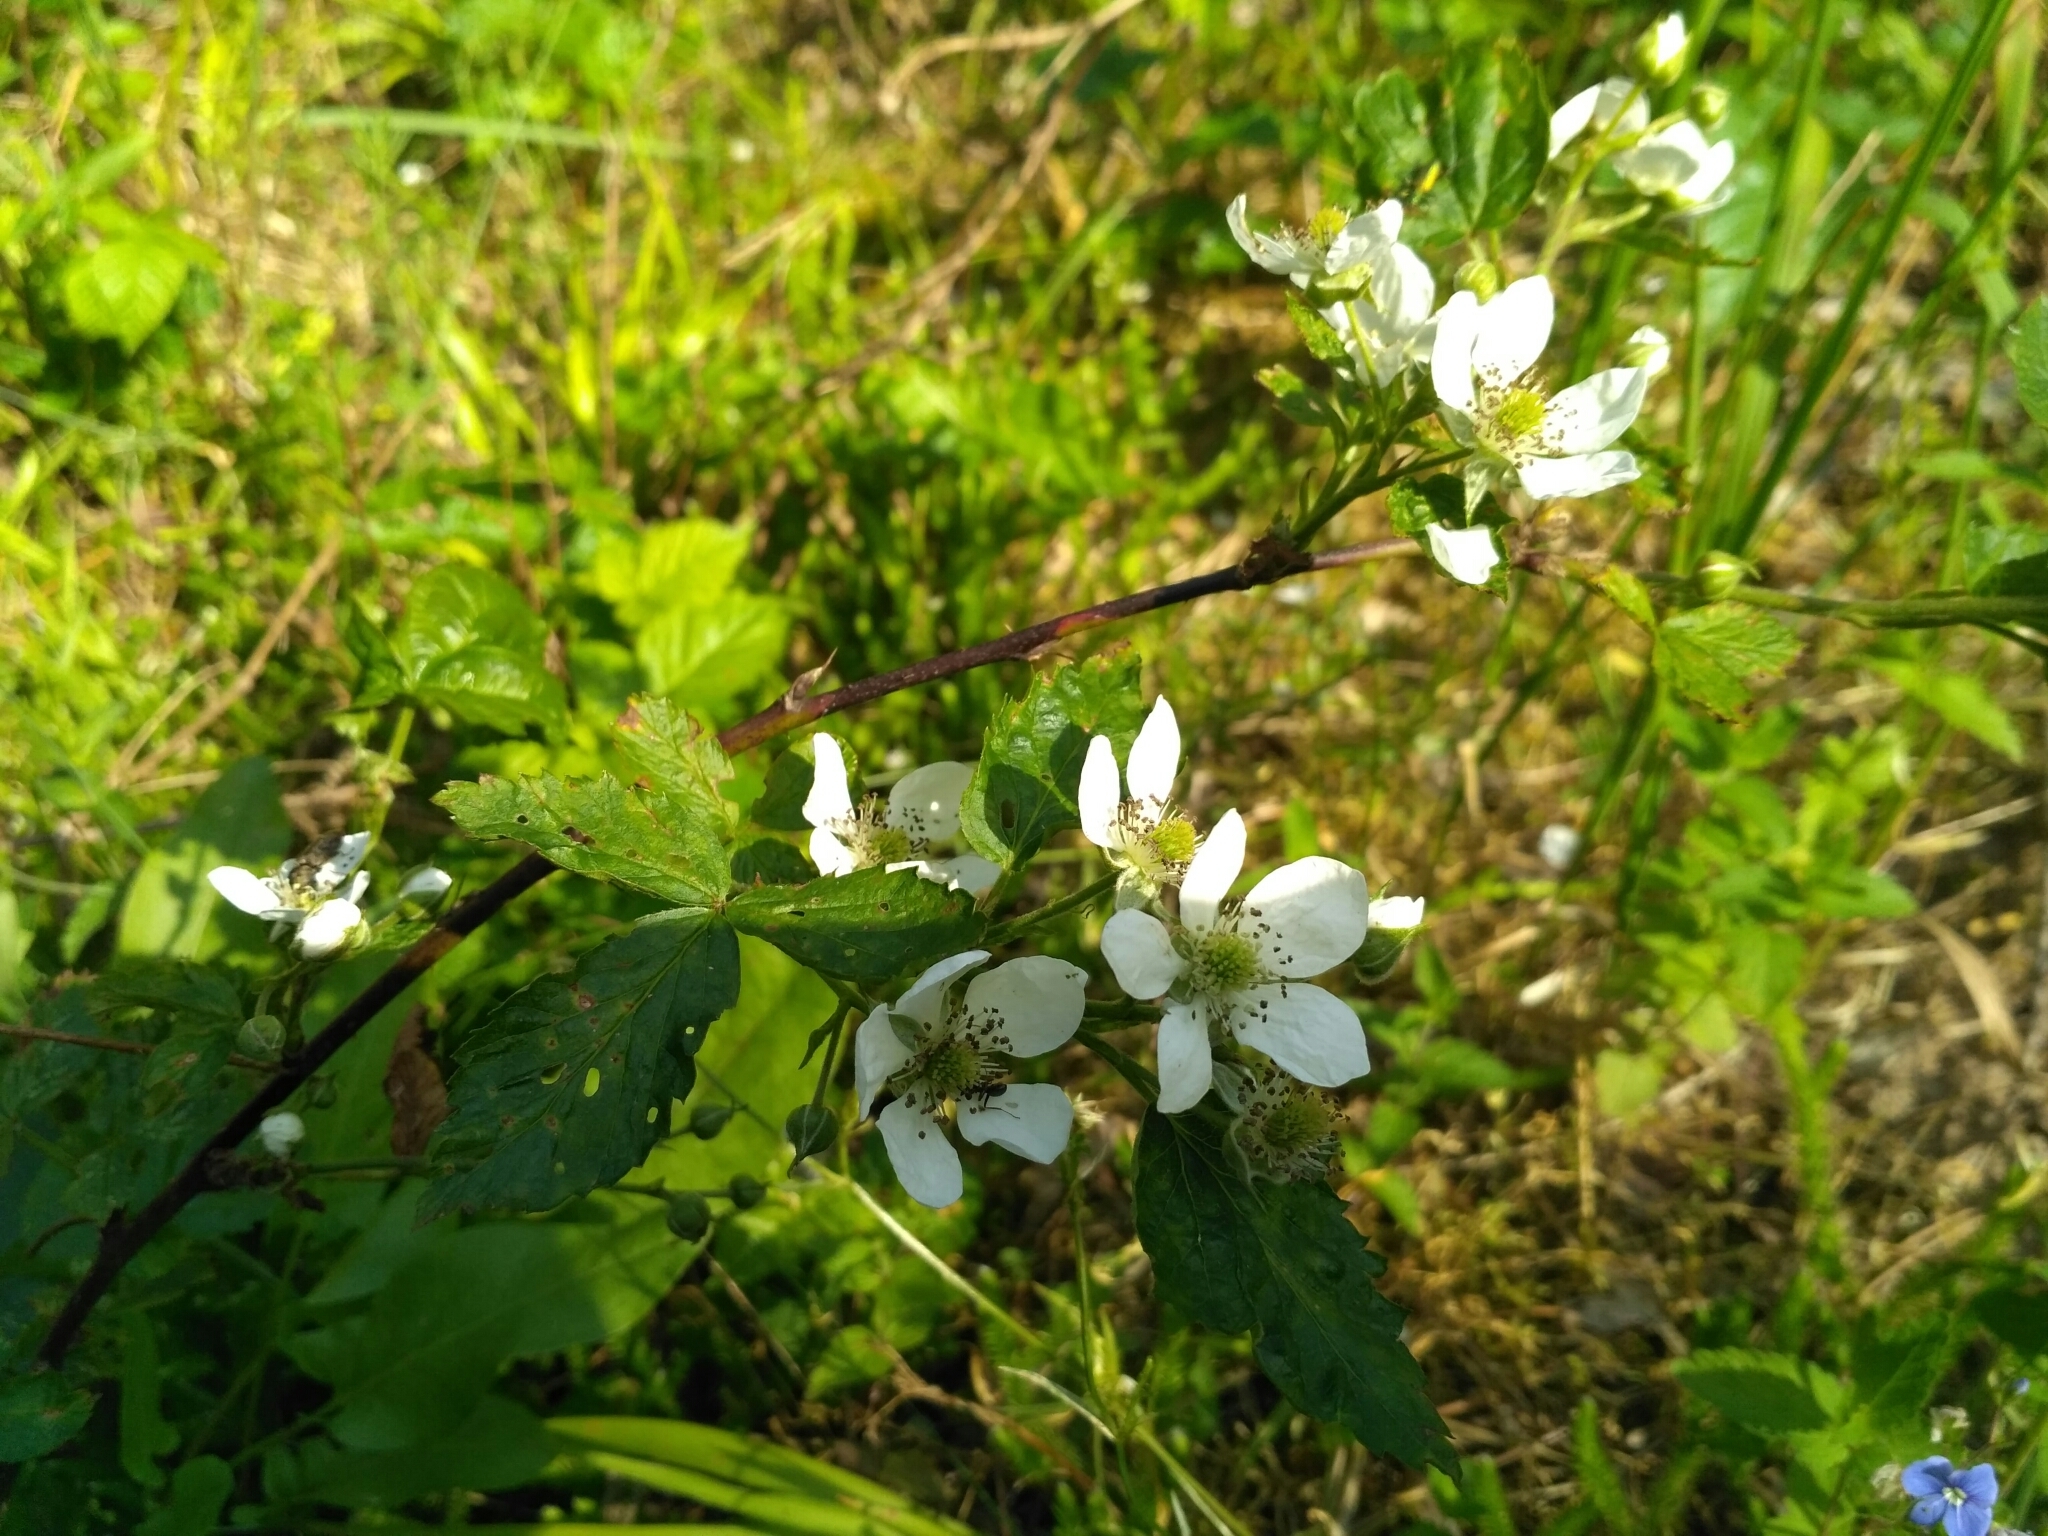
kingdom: Plantae
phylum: Tracheophyta
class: Magnoliopsida
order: Rosales
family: Rosaceae
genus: Rubus
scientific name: Rubus polonicus
